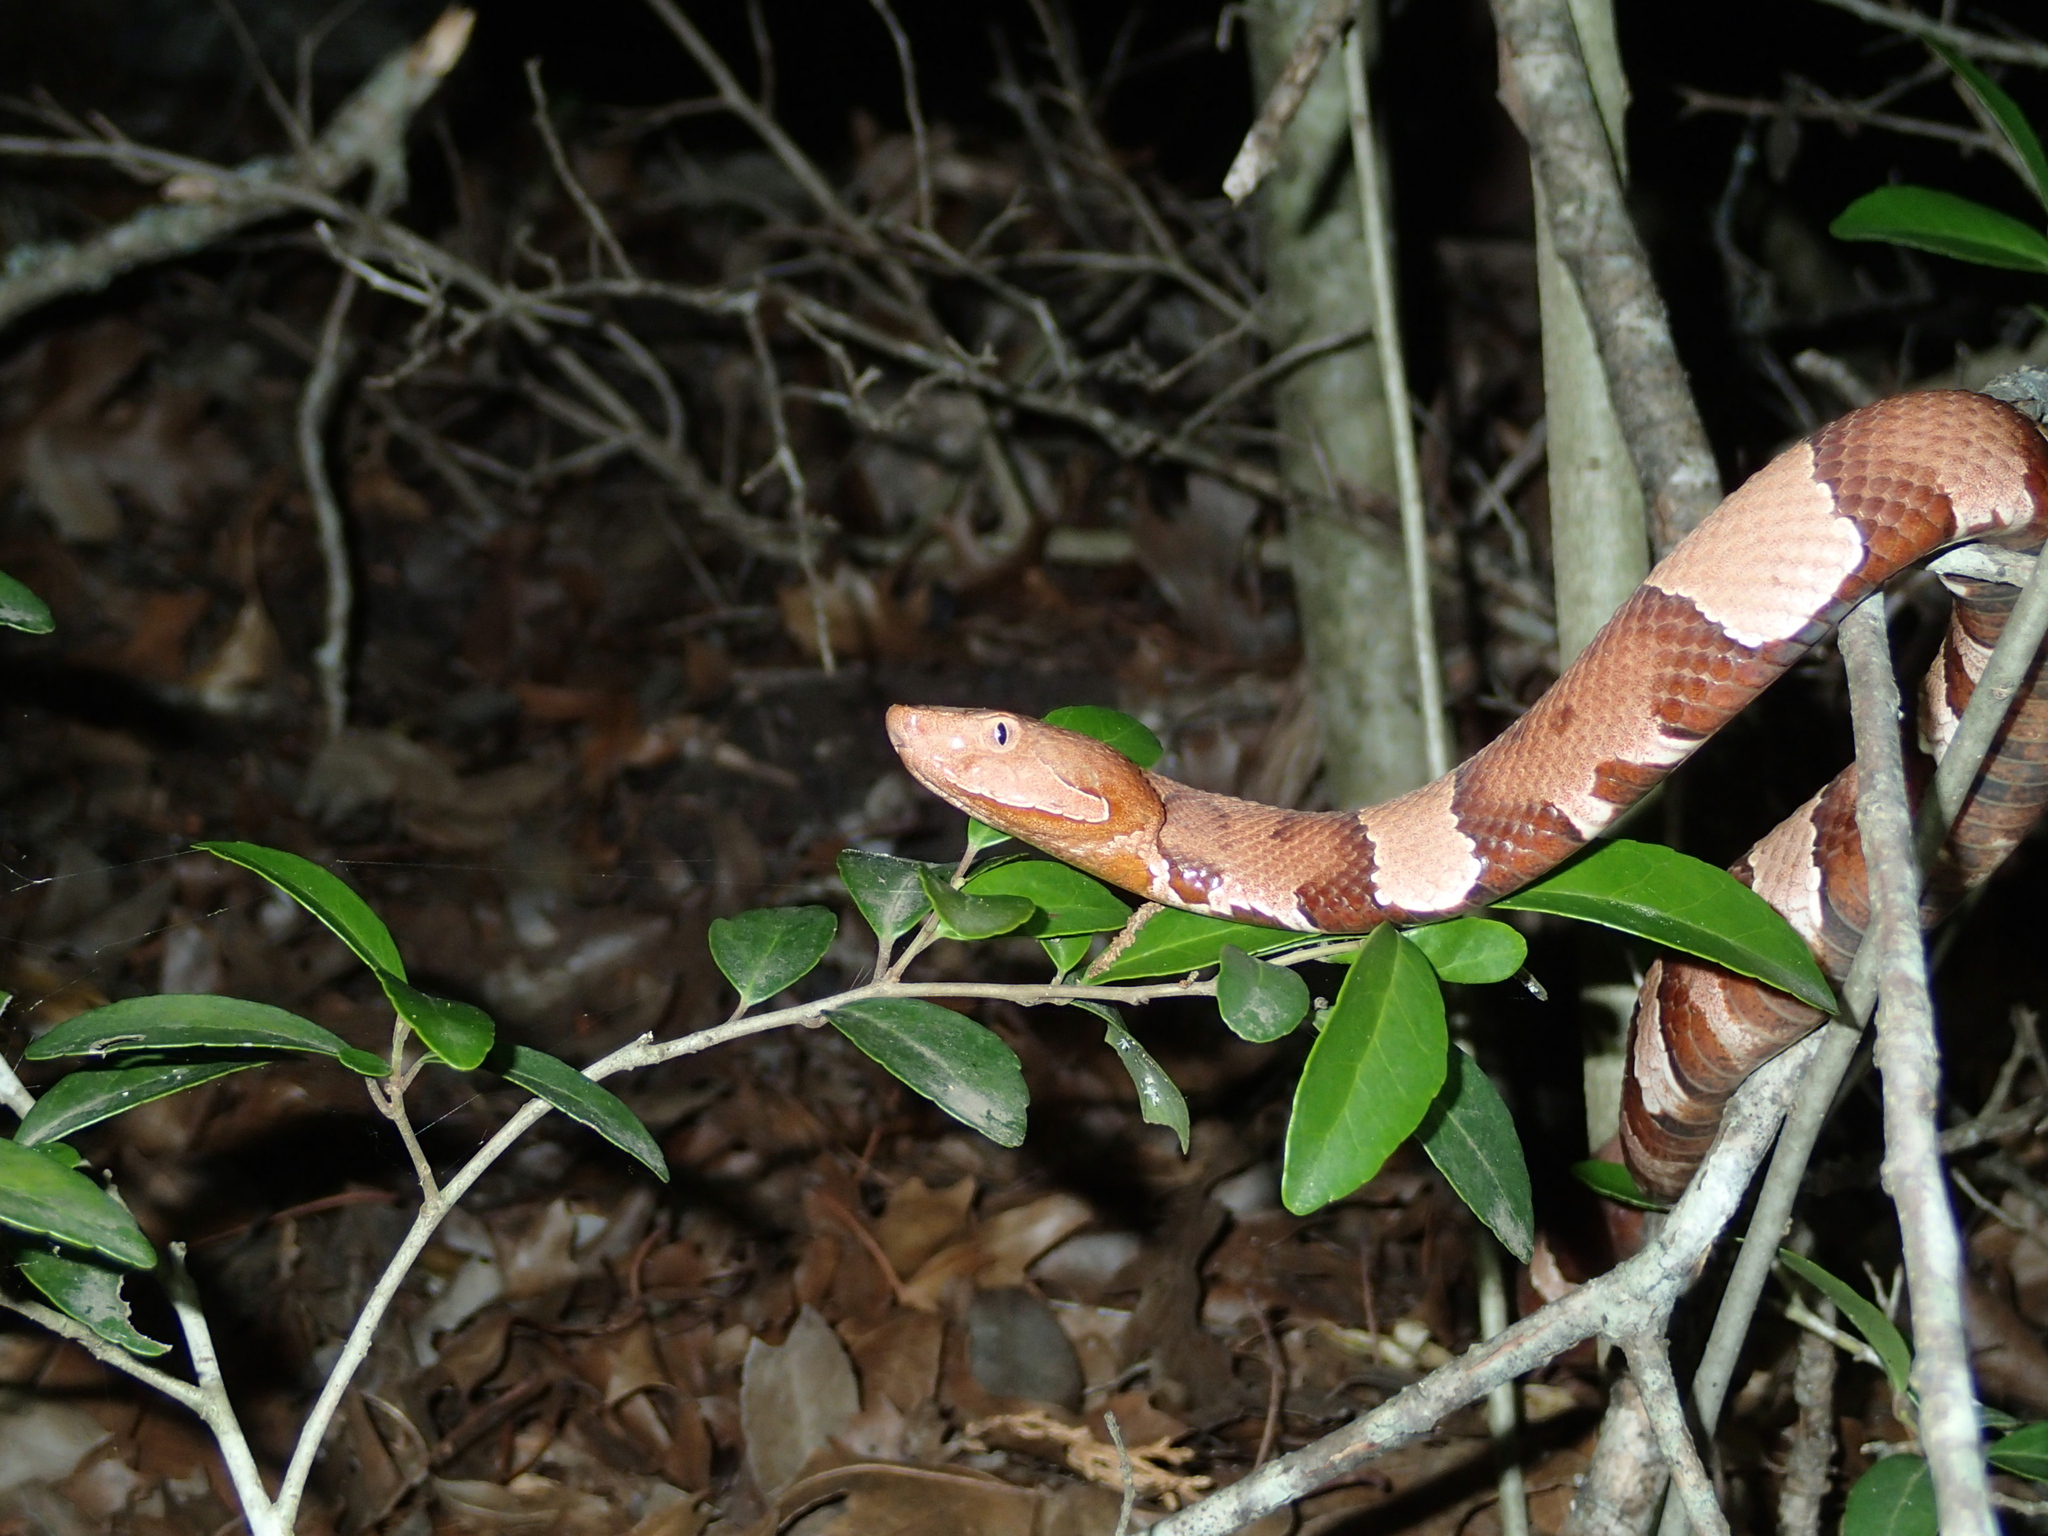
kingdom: Animalia
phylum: Chordata
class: Squamata
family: Viperidae
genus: Agkistrodon
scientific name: Agkistrodon laticinctus
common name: Broad-banded copperhead
